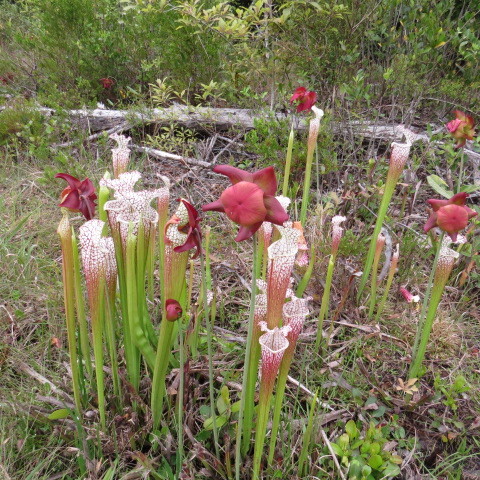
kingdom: Plantae
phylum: Tracheophyta
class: Magnoliopsida
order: Ericales
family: Sarraceniaceae
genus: Sarracenia
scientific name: Sarracenia leucophylla
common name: Purple trumpetleaf
